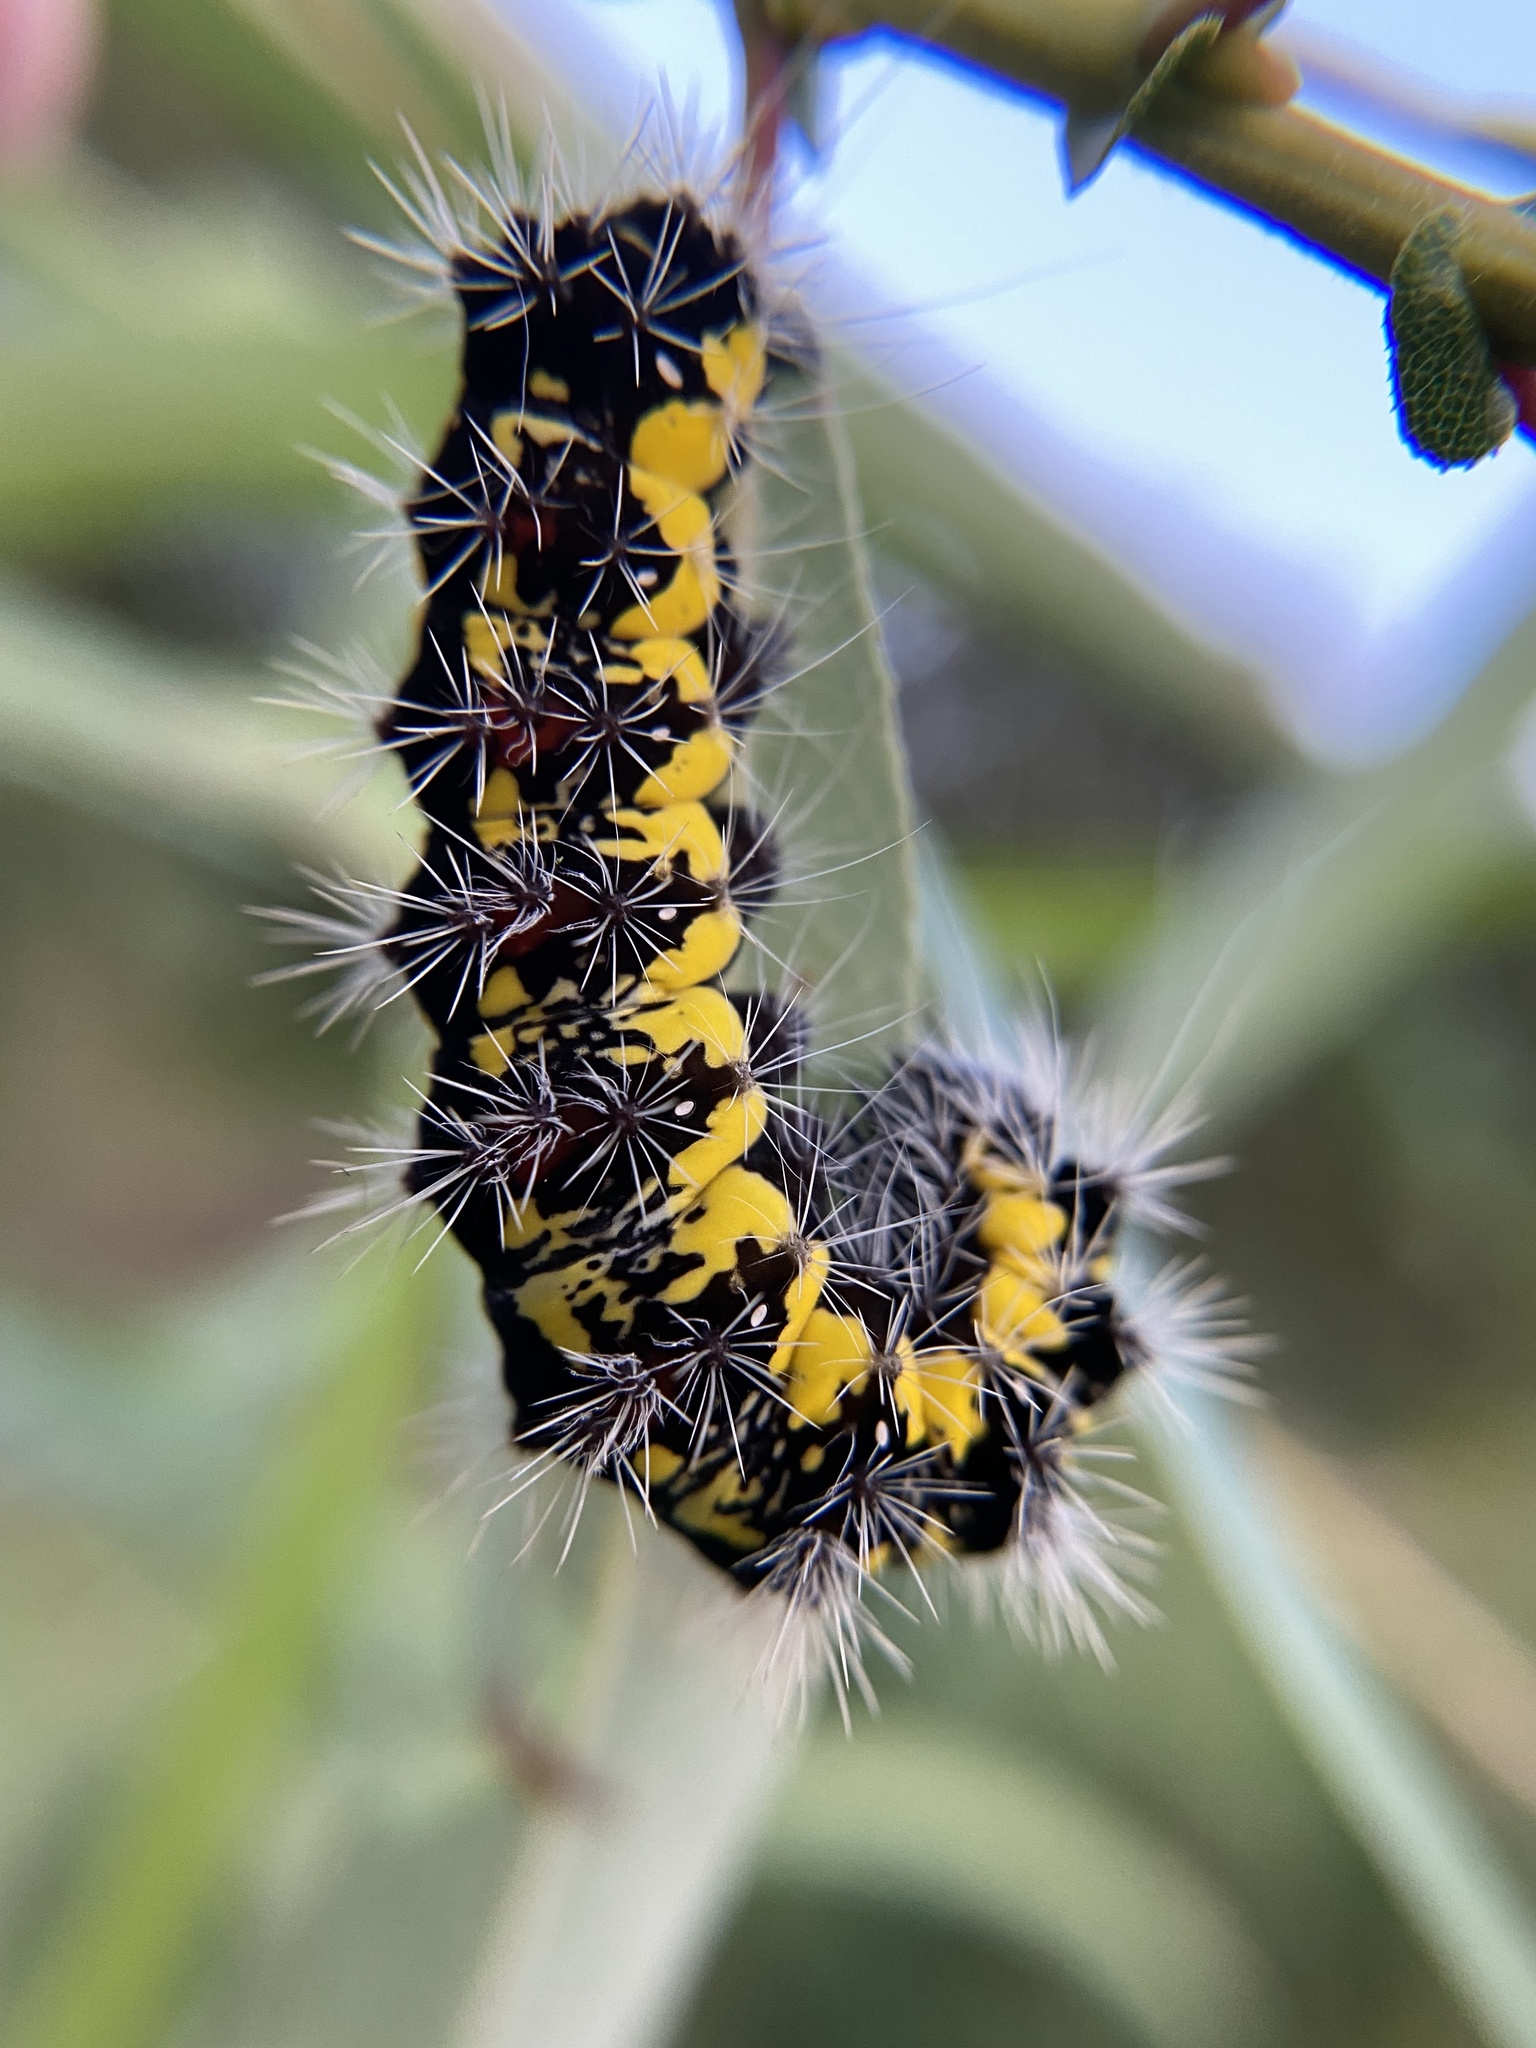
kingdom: Animalia
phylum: Arthropoda
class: Insecta
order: Lepidoptera
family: Noctuidae
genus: Acronicta
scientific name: Acronicta oblinita
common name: Smeared dagger
